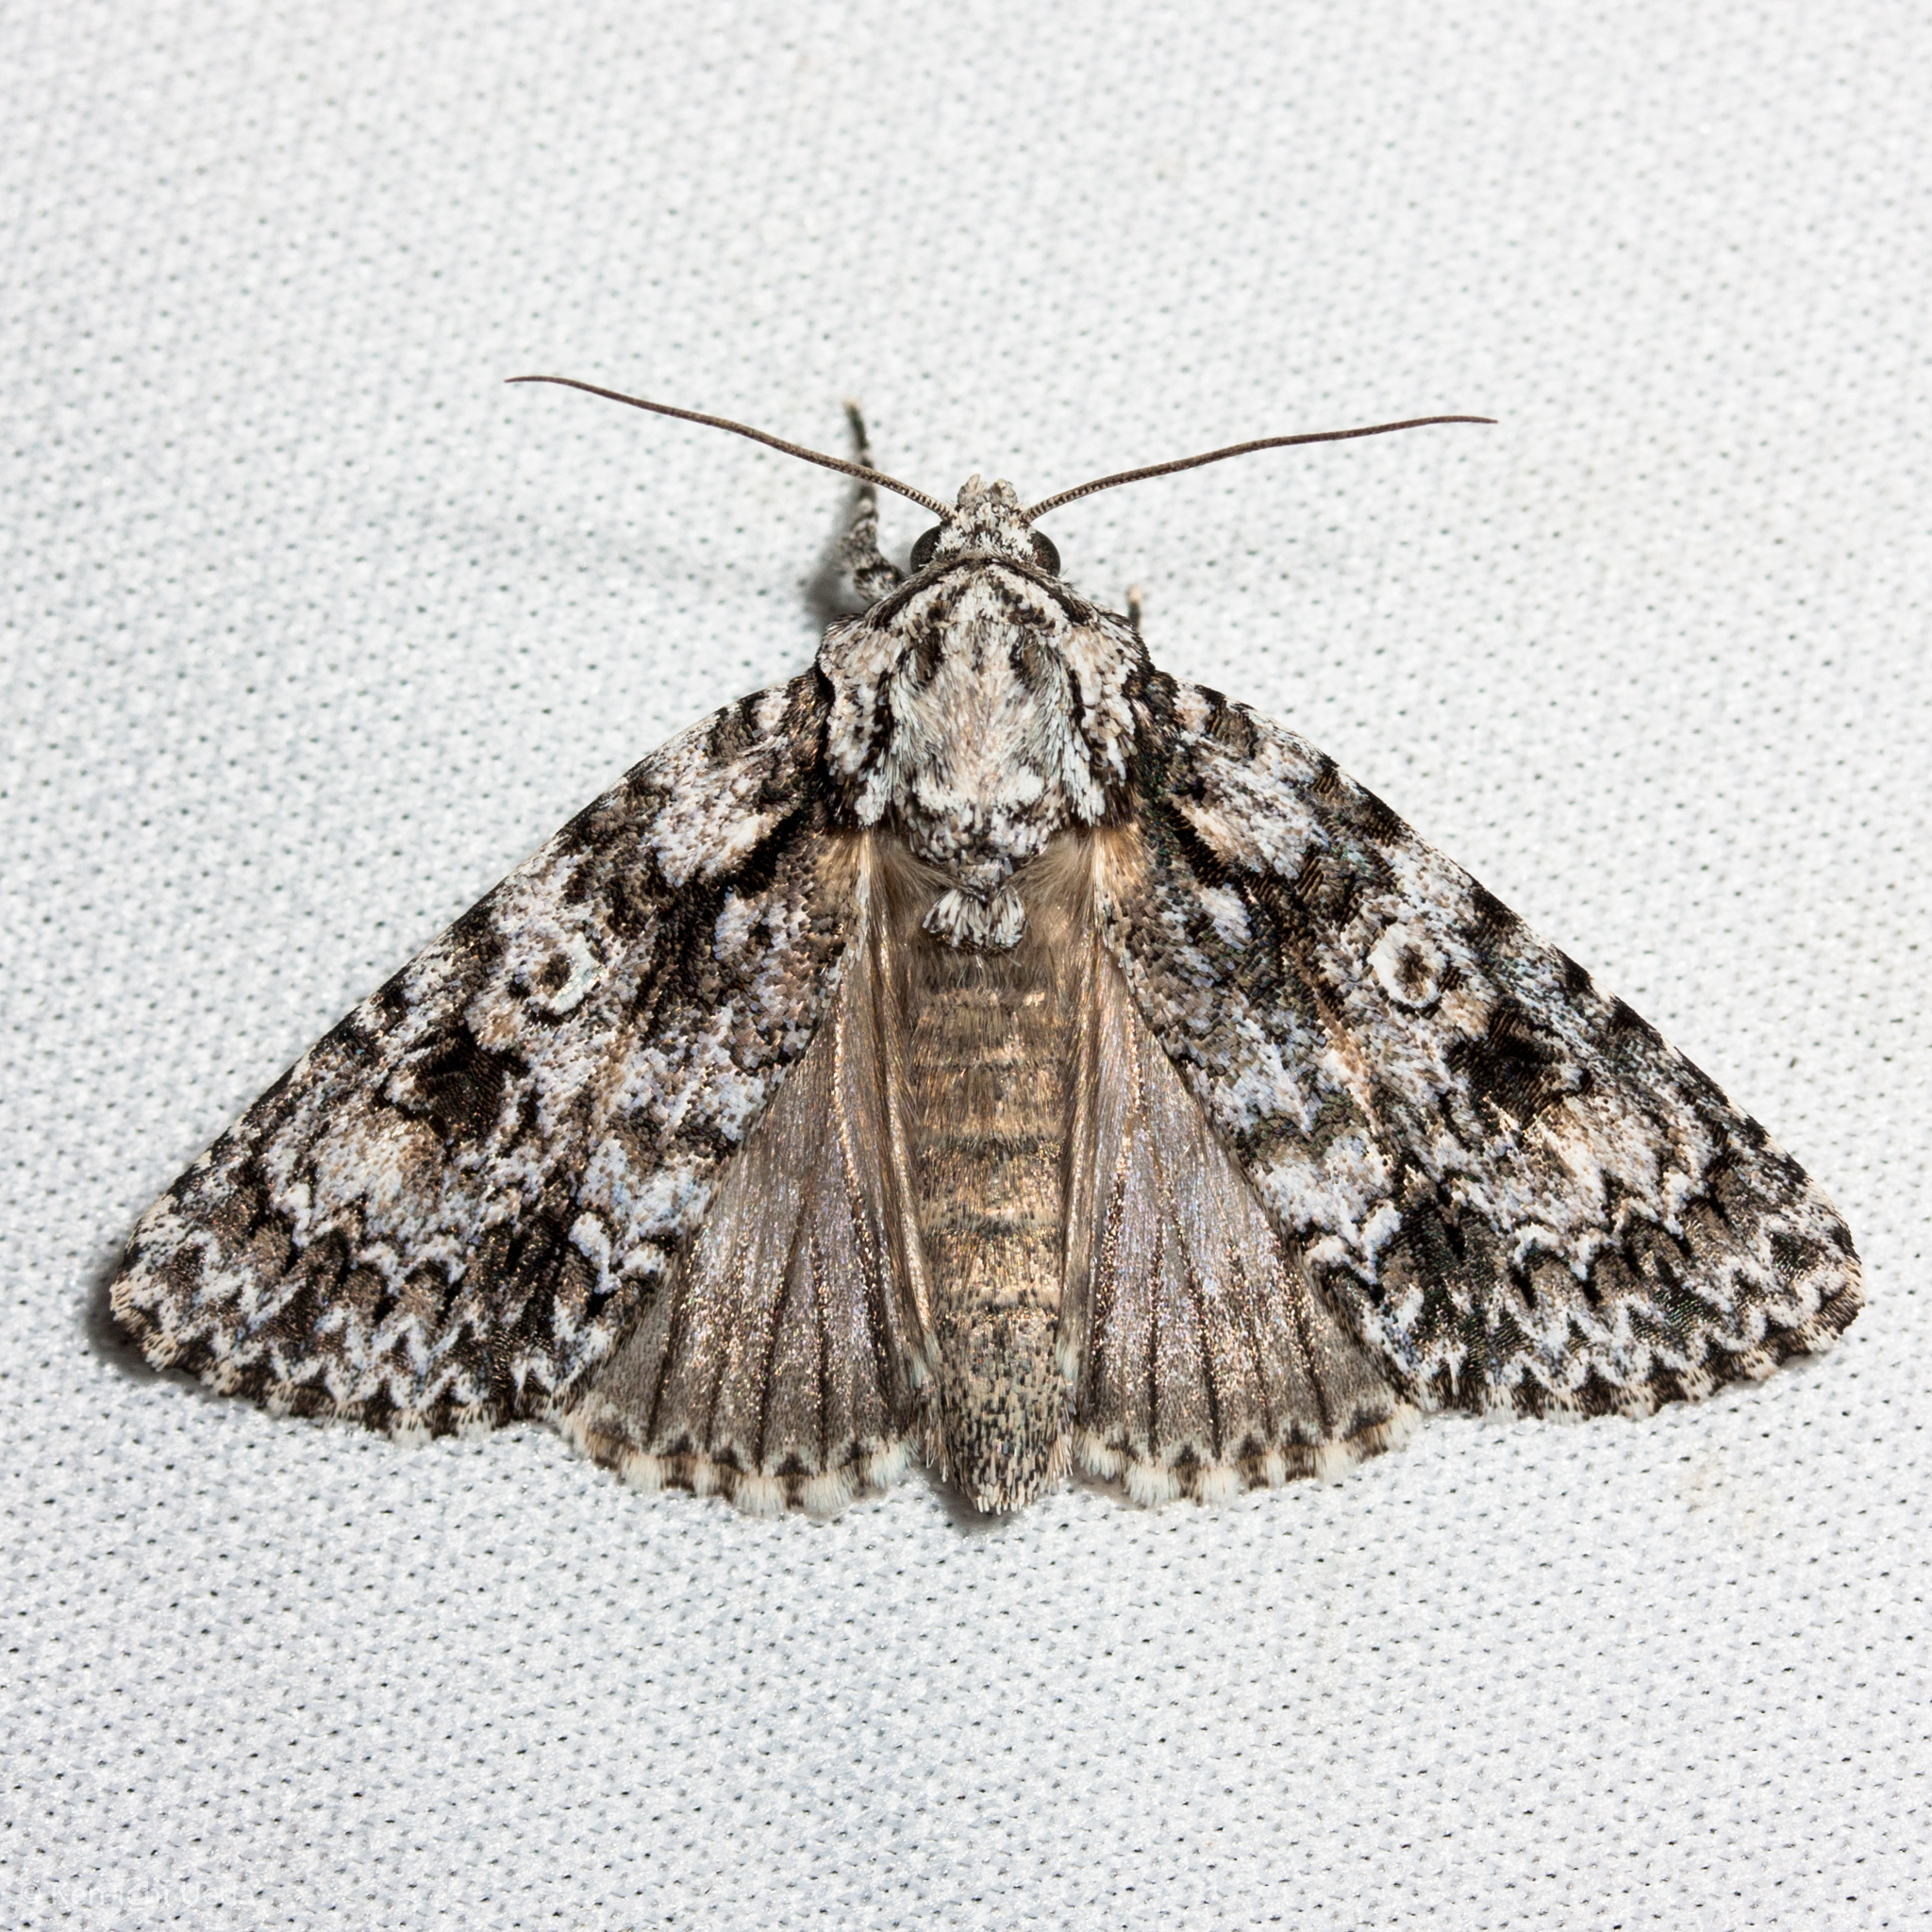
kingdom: Animalia
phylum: Arthropoda
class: Insecta
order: Lepidoptera
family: Noctuidae
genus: Acronicta
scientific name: Acronicta marmorata
